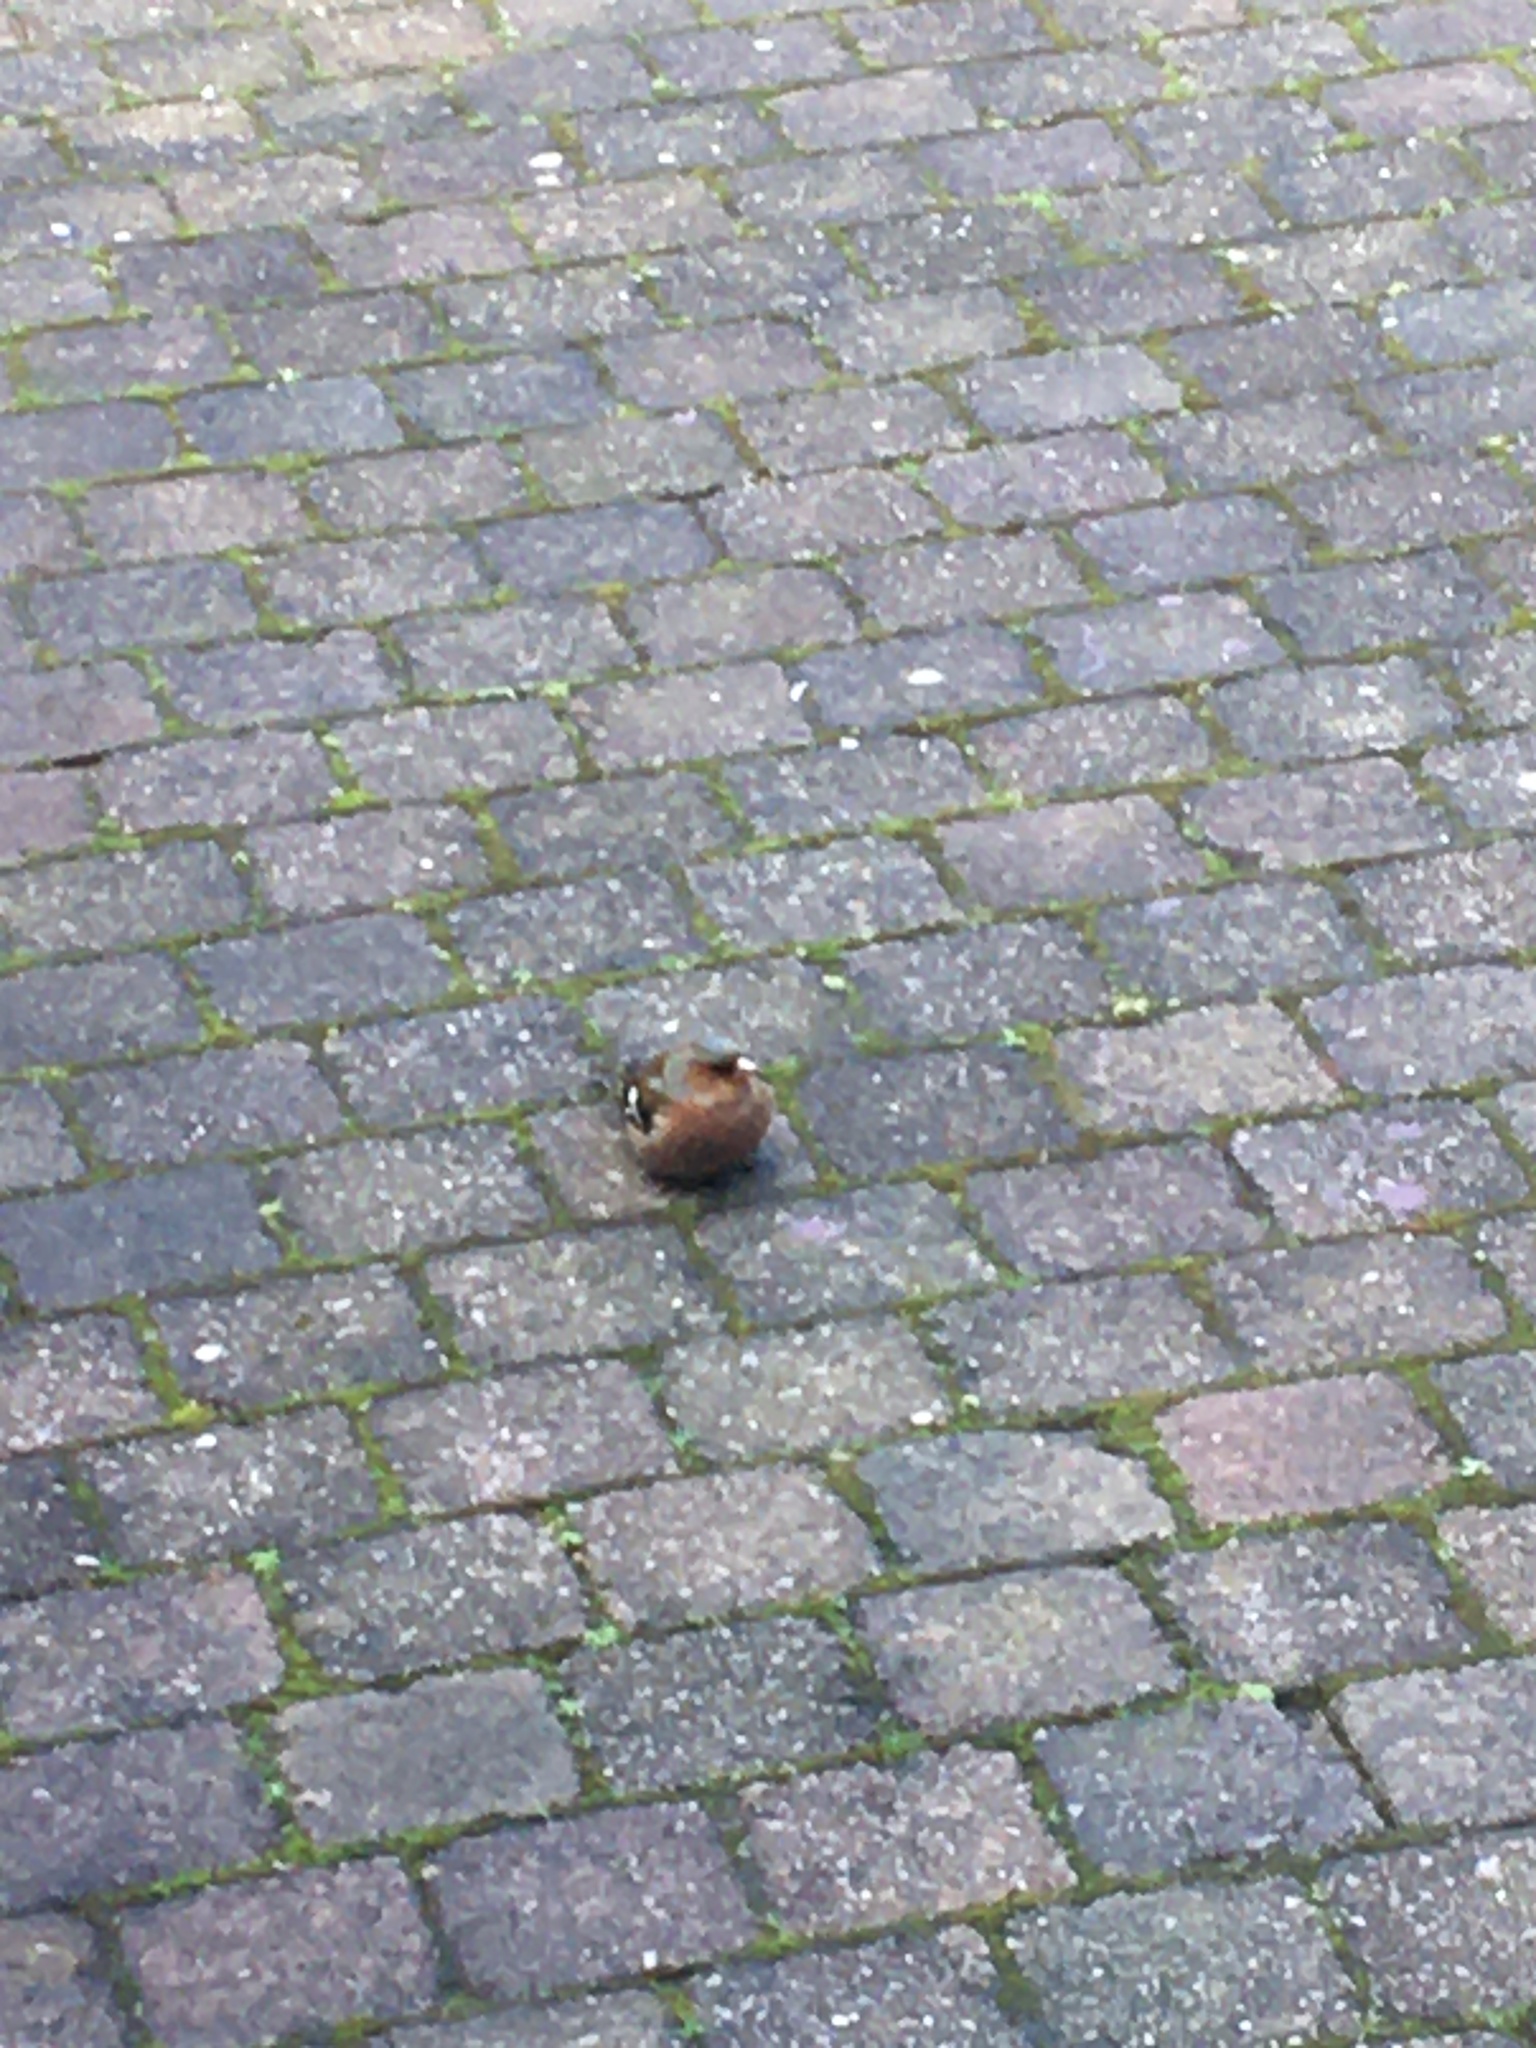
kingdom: Animalia
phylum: Chordata
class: Aves
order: Passeriformes
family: Fringillidae
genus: Fringilla
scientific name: Fringilla coelebs
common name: Common chaffinch
